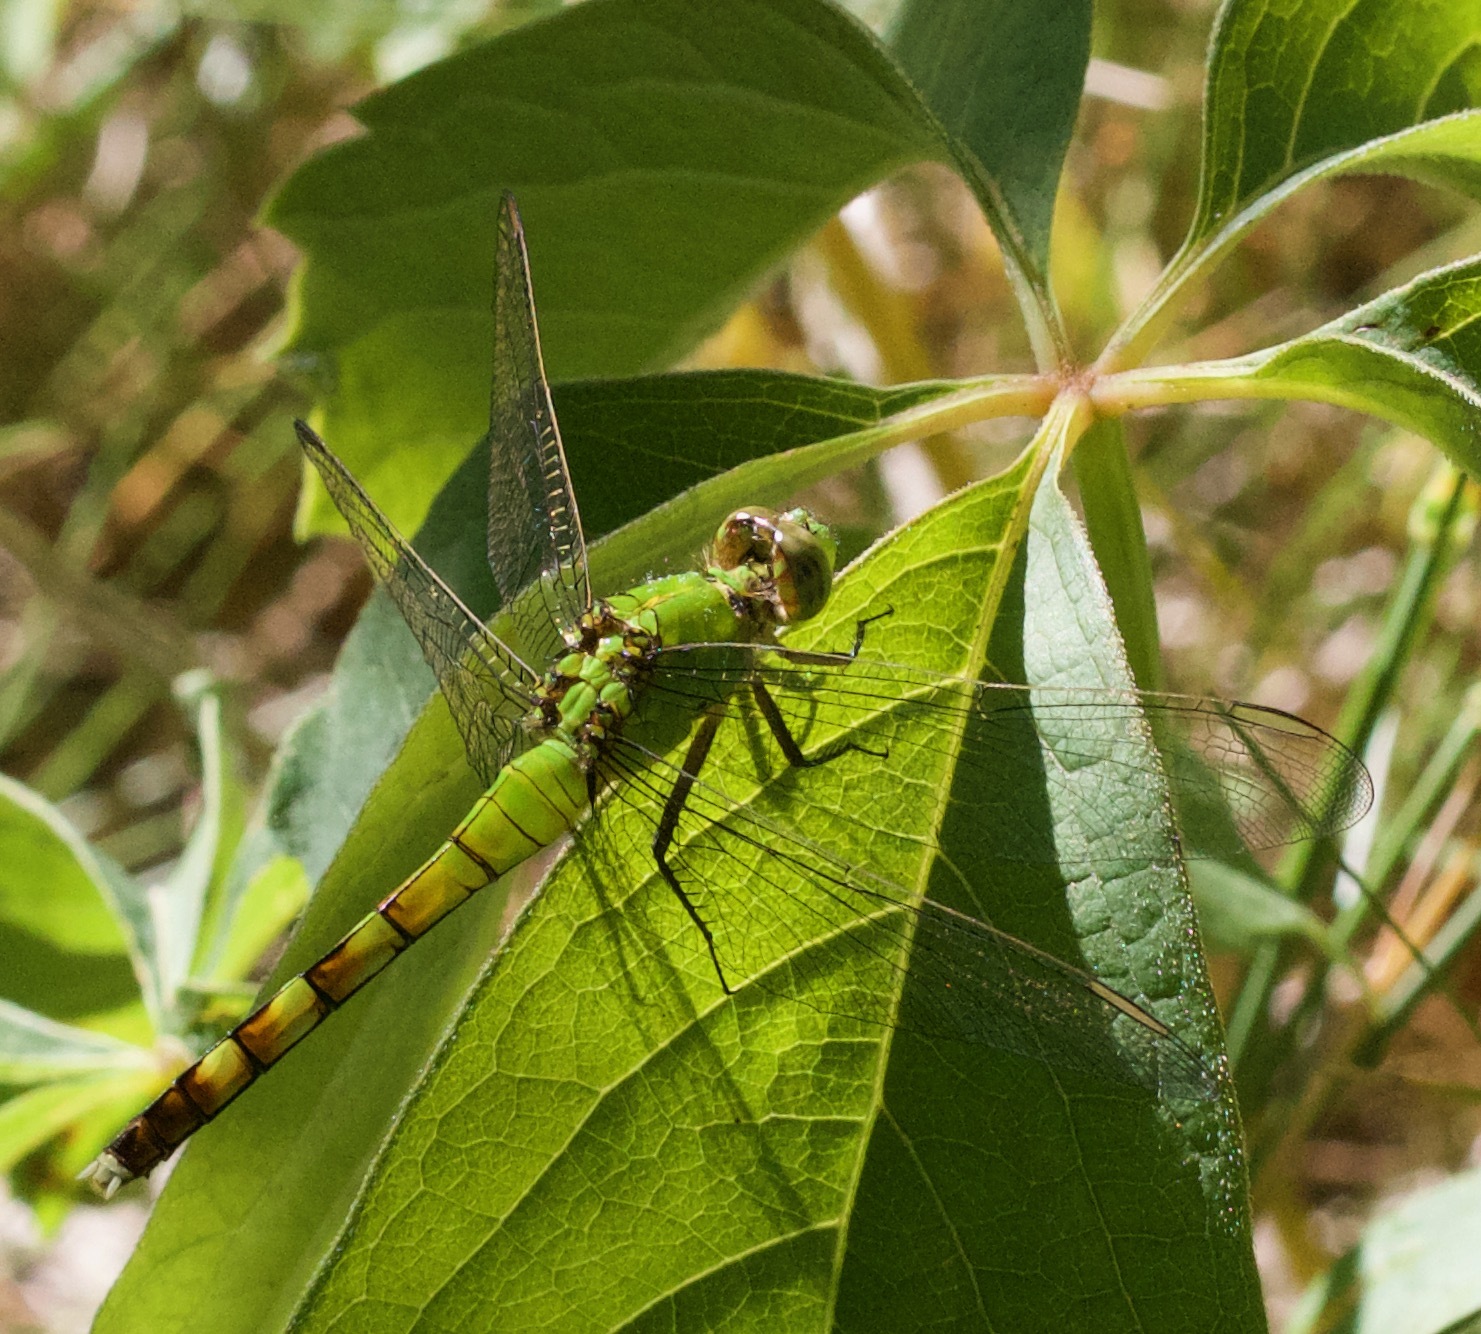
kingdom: Animalia
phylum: Arthropoda
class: Insecta
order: Odonata
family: Libellulidae
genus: Erythemis
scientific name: Erythemis simplicicollis
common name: Eastern pondhawk
